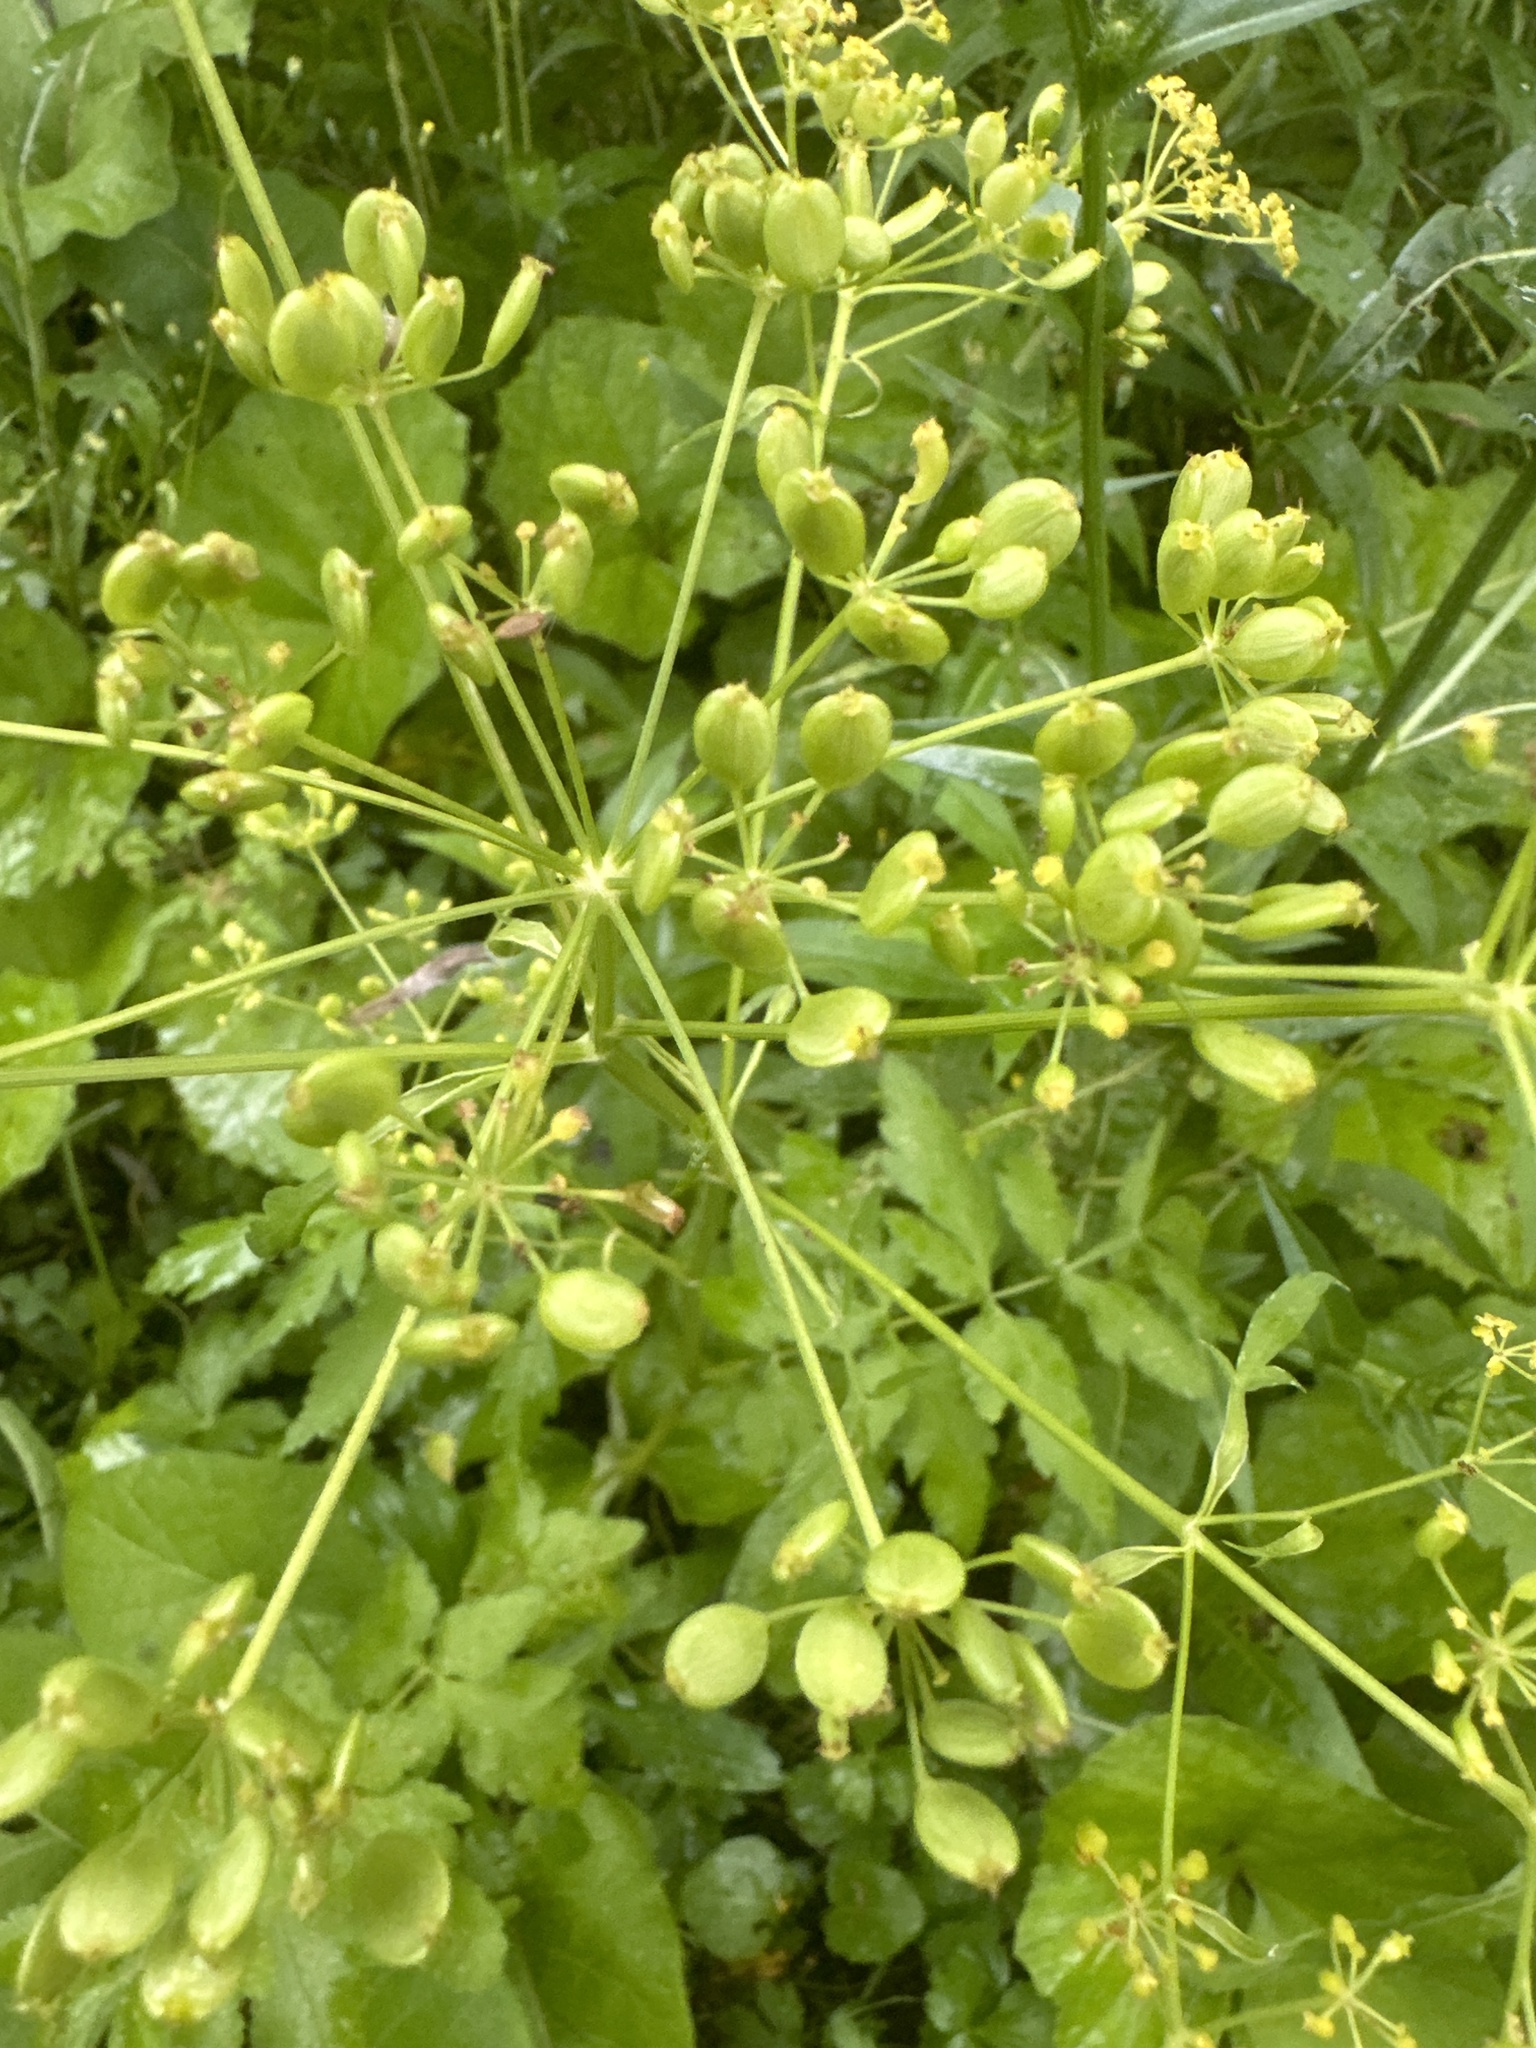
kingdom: Plantae
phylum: Tracheophyta
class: Magnoliopsida
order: Apiales
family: Apiaceae
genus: Pastinaca
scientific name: Pastinaca sativa
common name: Wild parsnip
